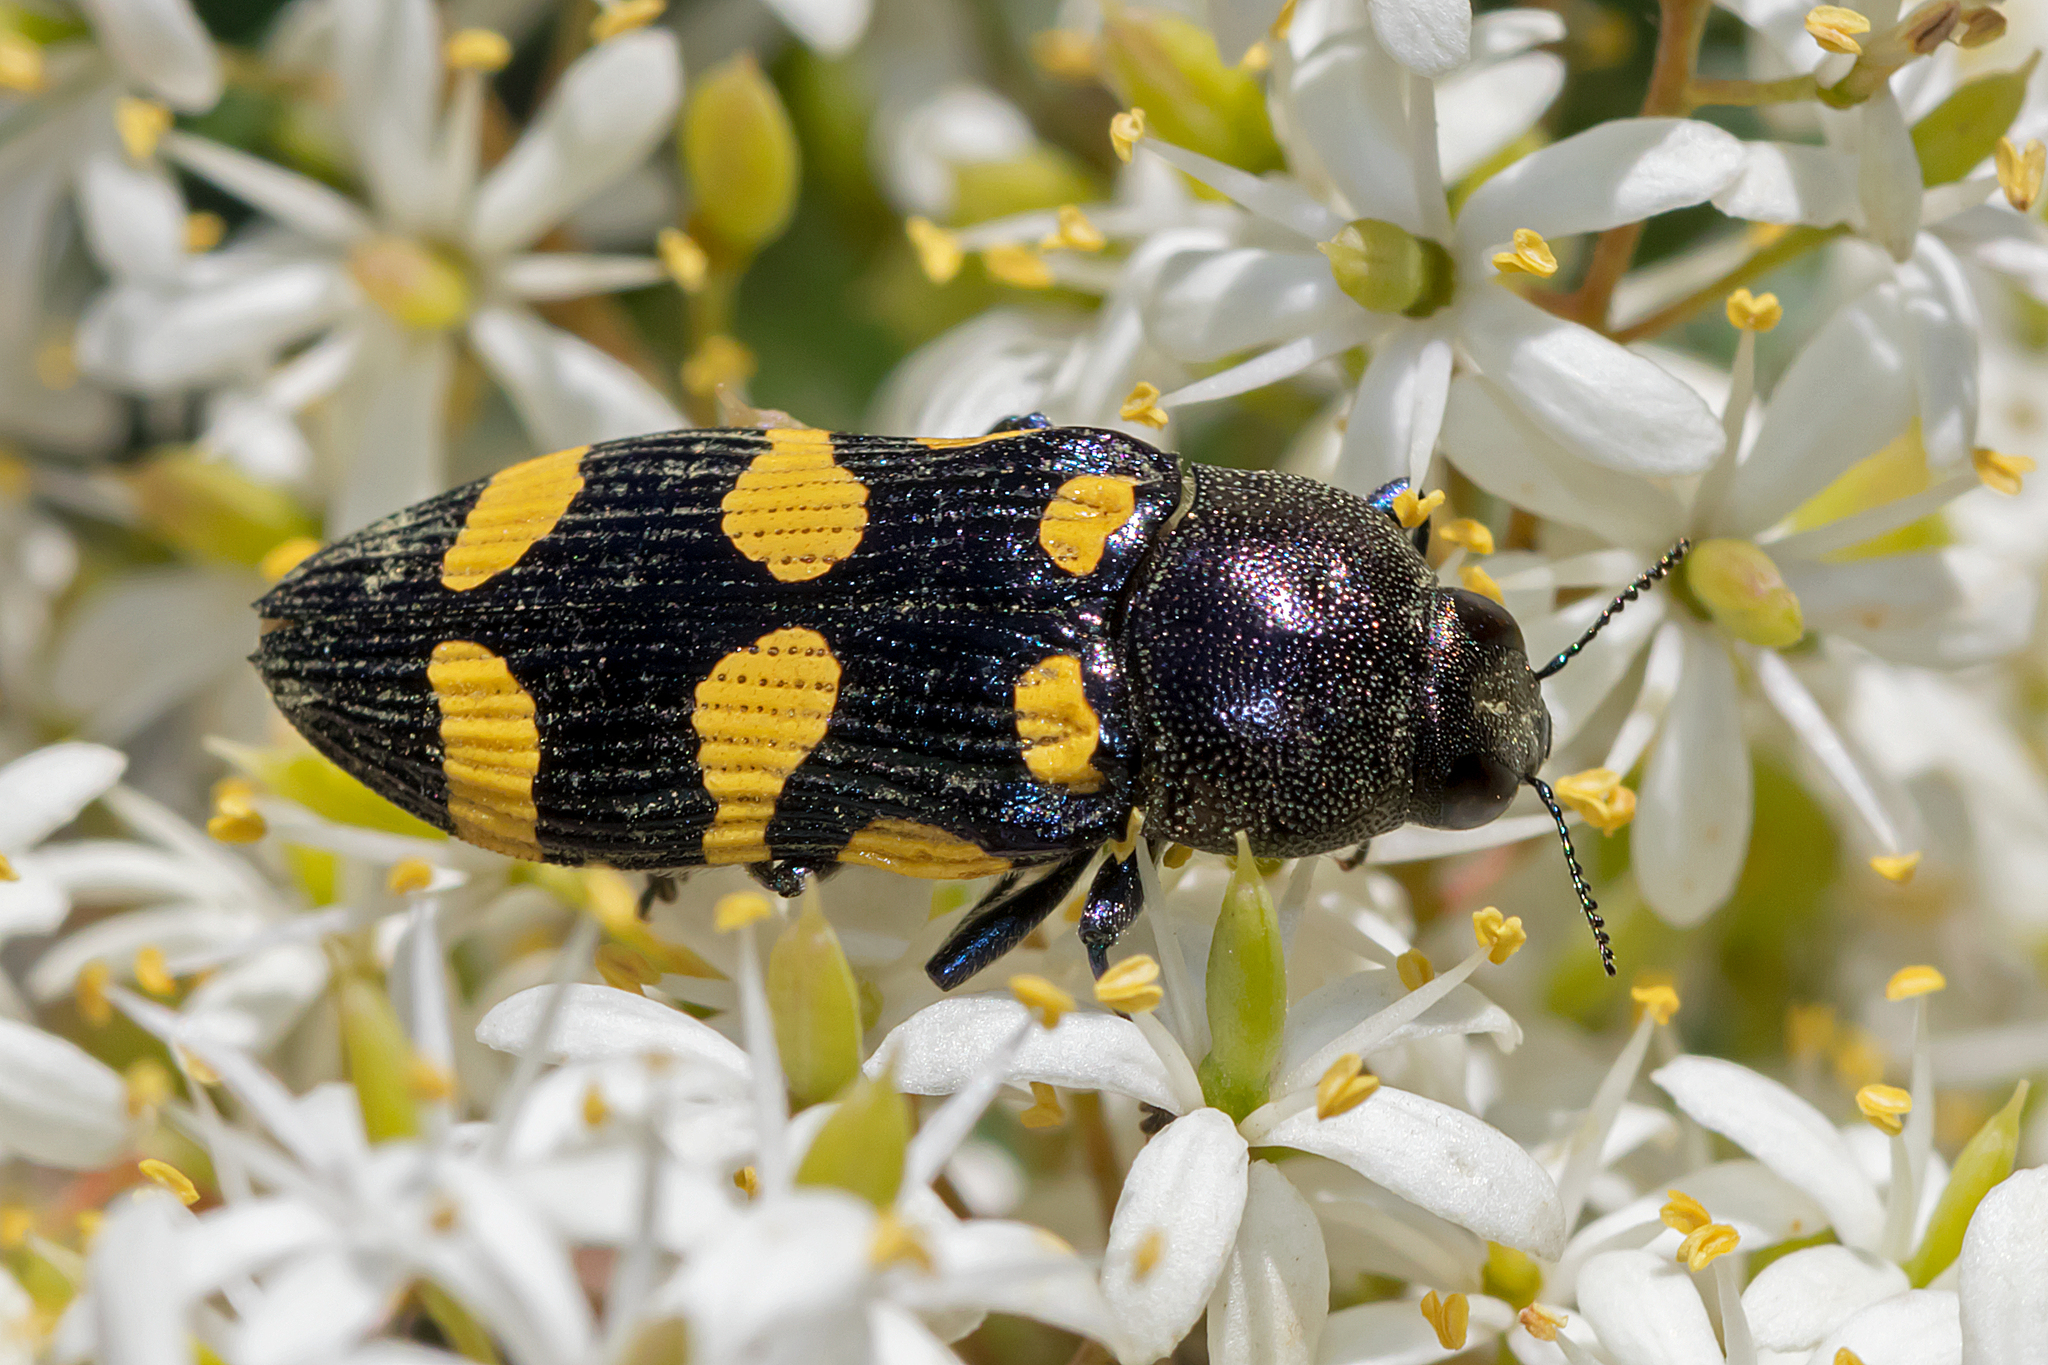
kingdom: Animalia
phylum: Arthropoda
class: Insecta
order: Coleoptera
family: Buprestidae
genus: Castiarina
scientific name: Castiarina australasiae
